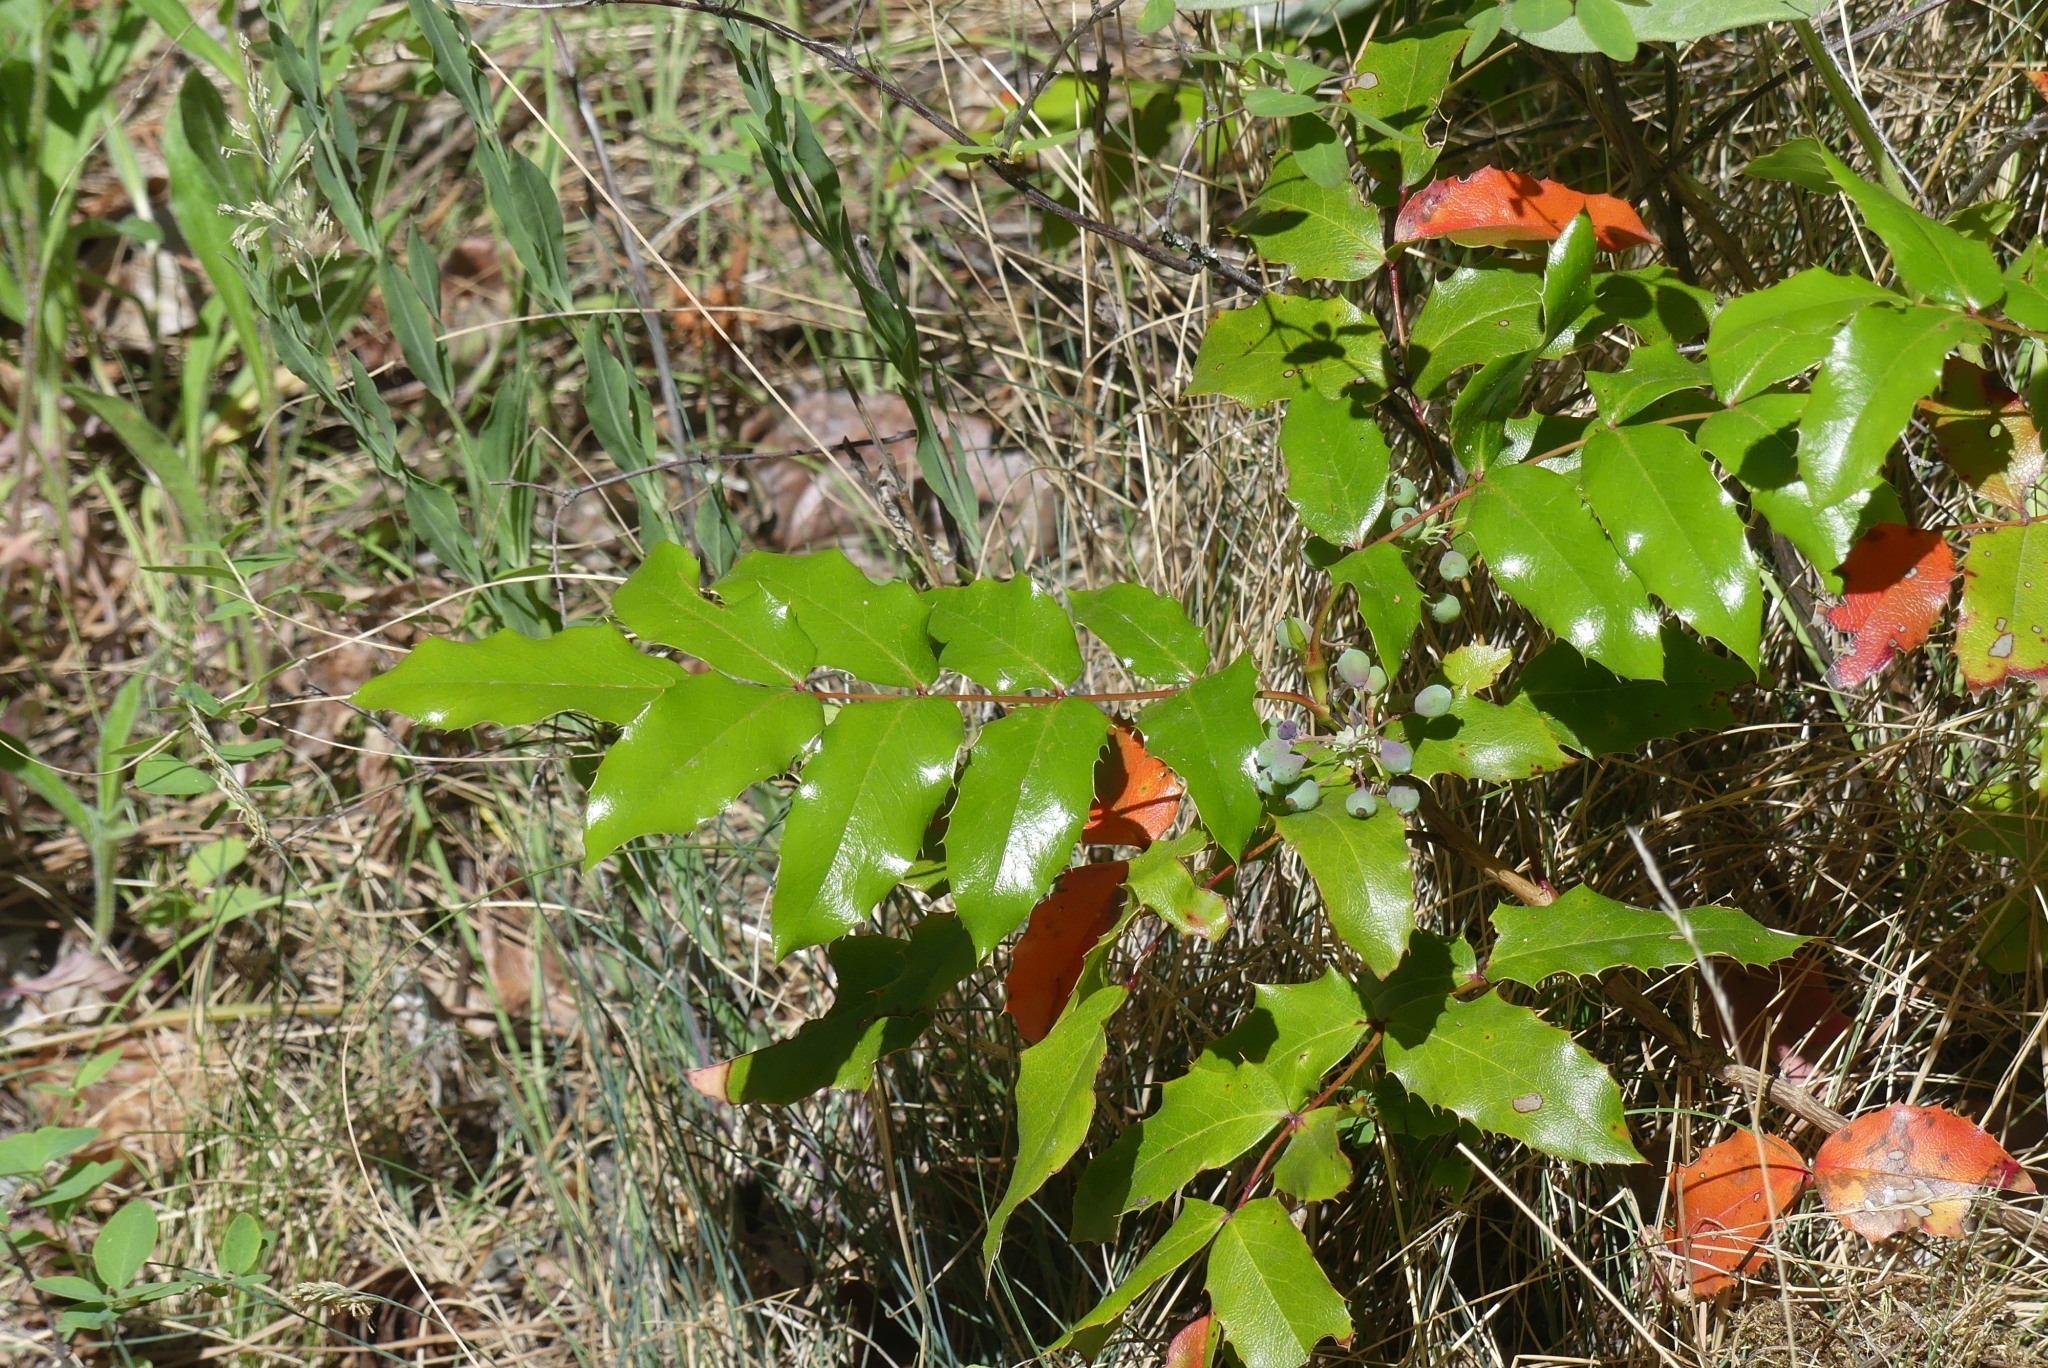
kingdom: Plantae
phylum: Tracheophyta
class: Magnoliopsida
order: Ranunculales
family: Berberidaceae
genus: Mahonia
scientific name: Mahonia aquifolium
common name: Oregon-grape
